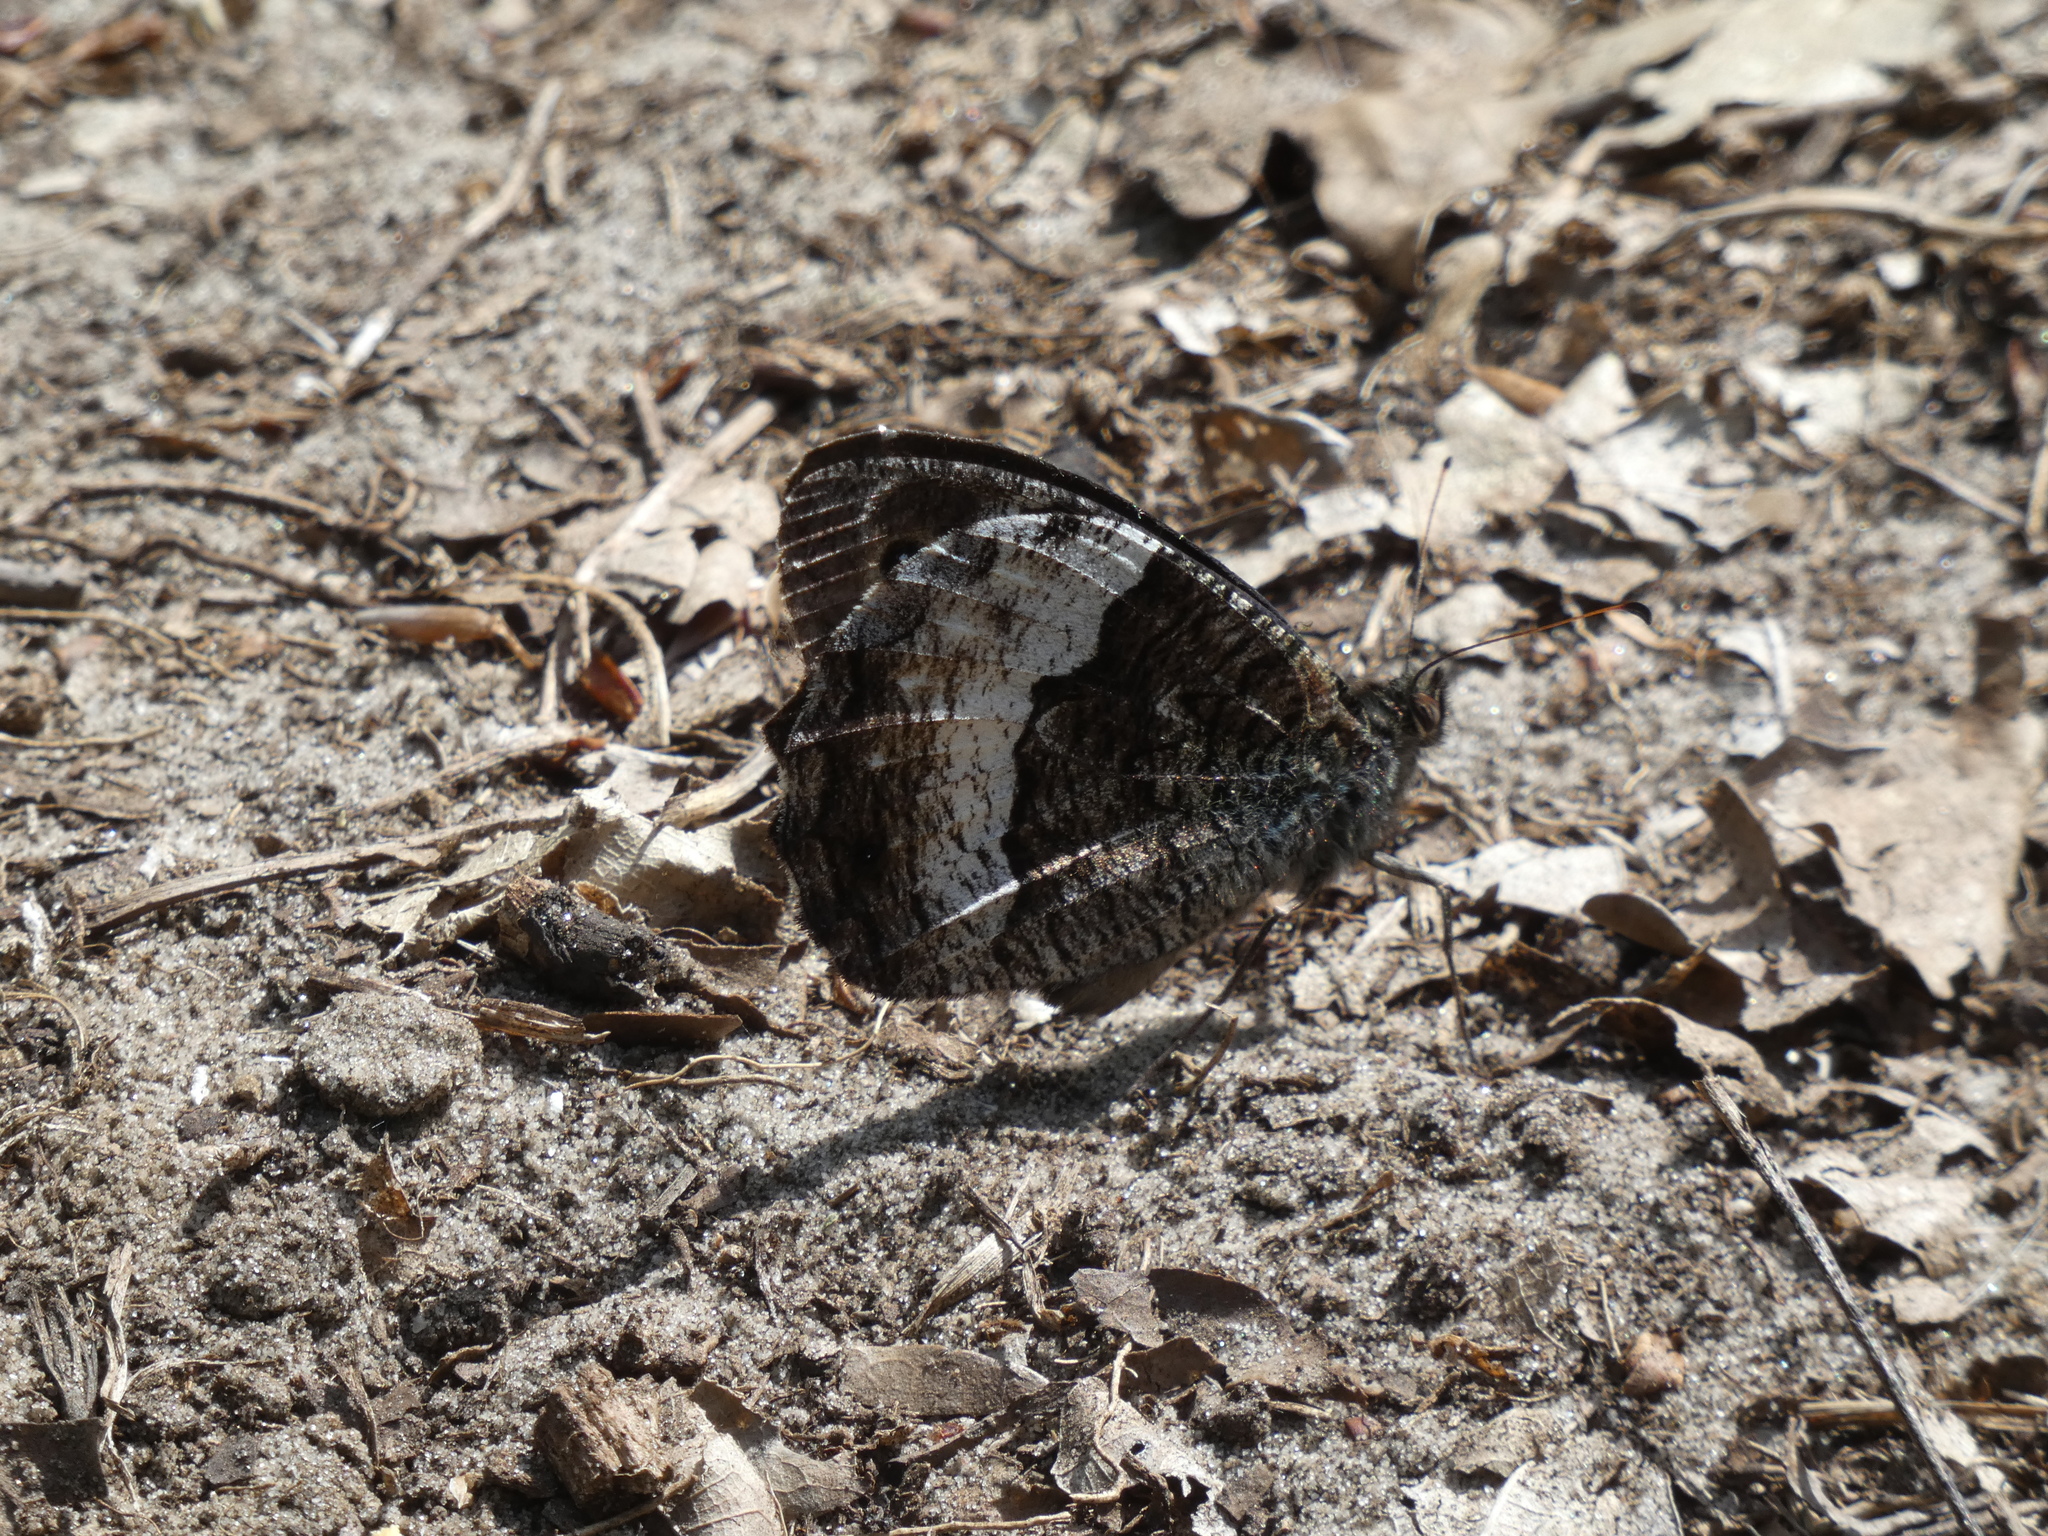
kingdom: Animalia
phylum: Arthropoda
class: Insecta
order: Lepidoptera
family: Nymphalidae
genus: Hipparchia
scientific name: Hipparchia fagi
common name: Woodland grayling
